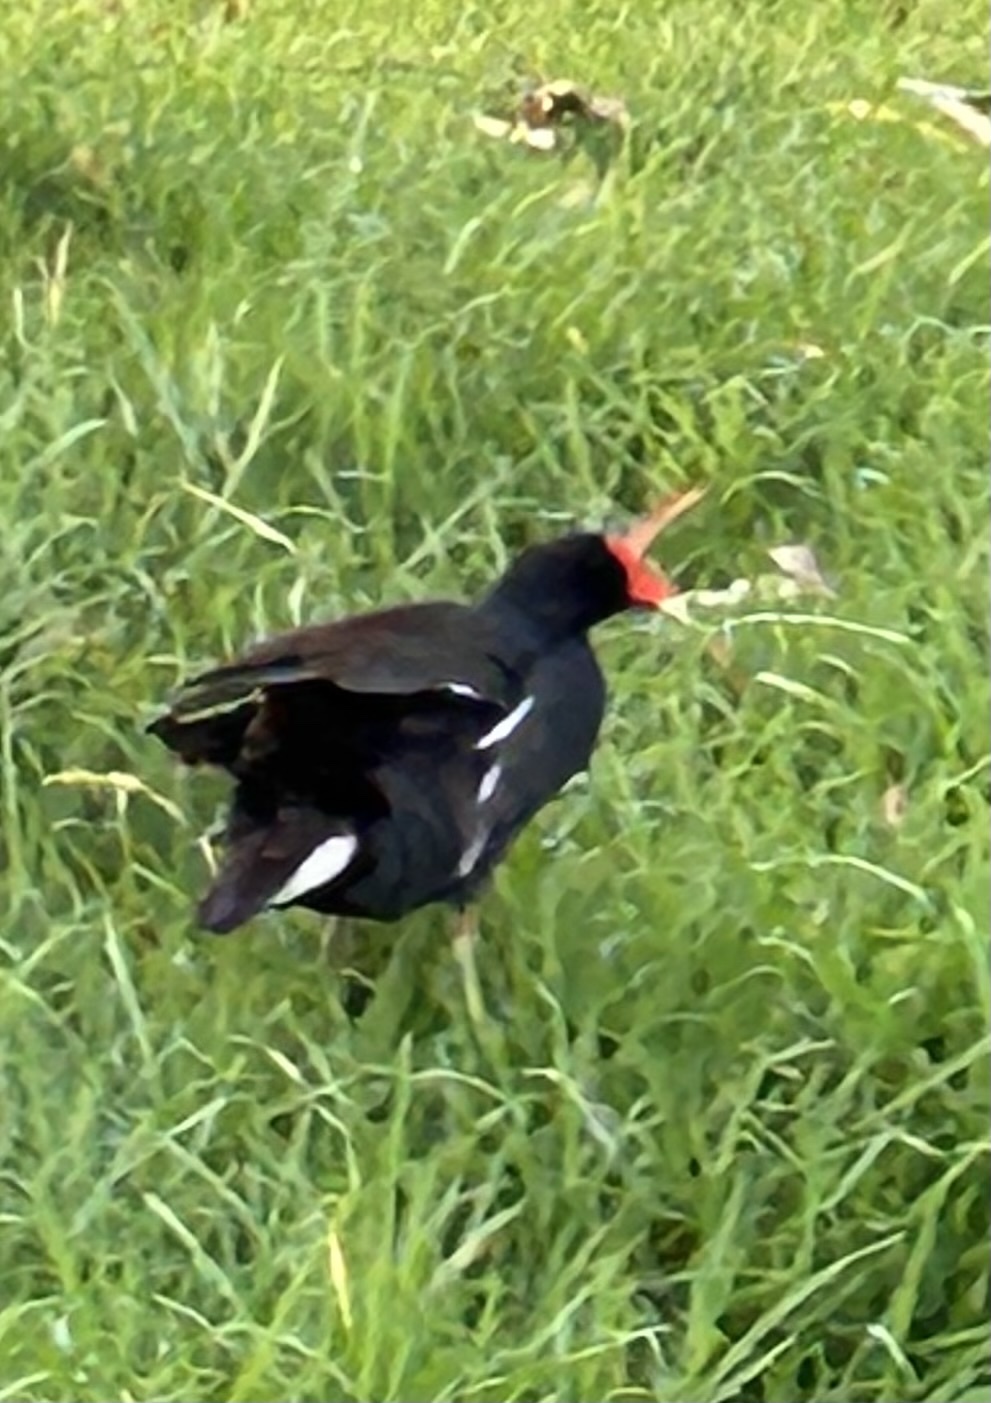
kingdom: Animalia
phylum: Chordata
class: Aves
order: Gruiformes
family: Rallidae
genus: Gallinula
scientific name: Gallinula chloropus
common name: Common moorhen
